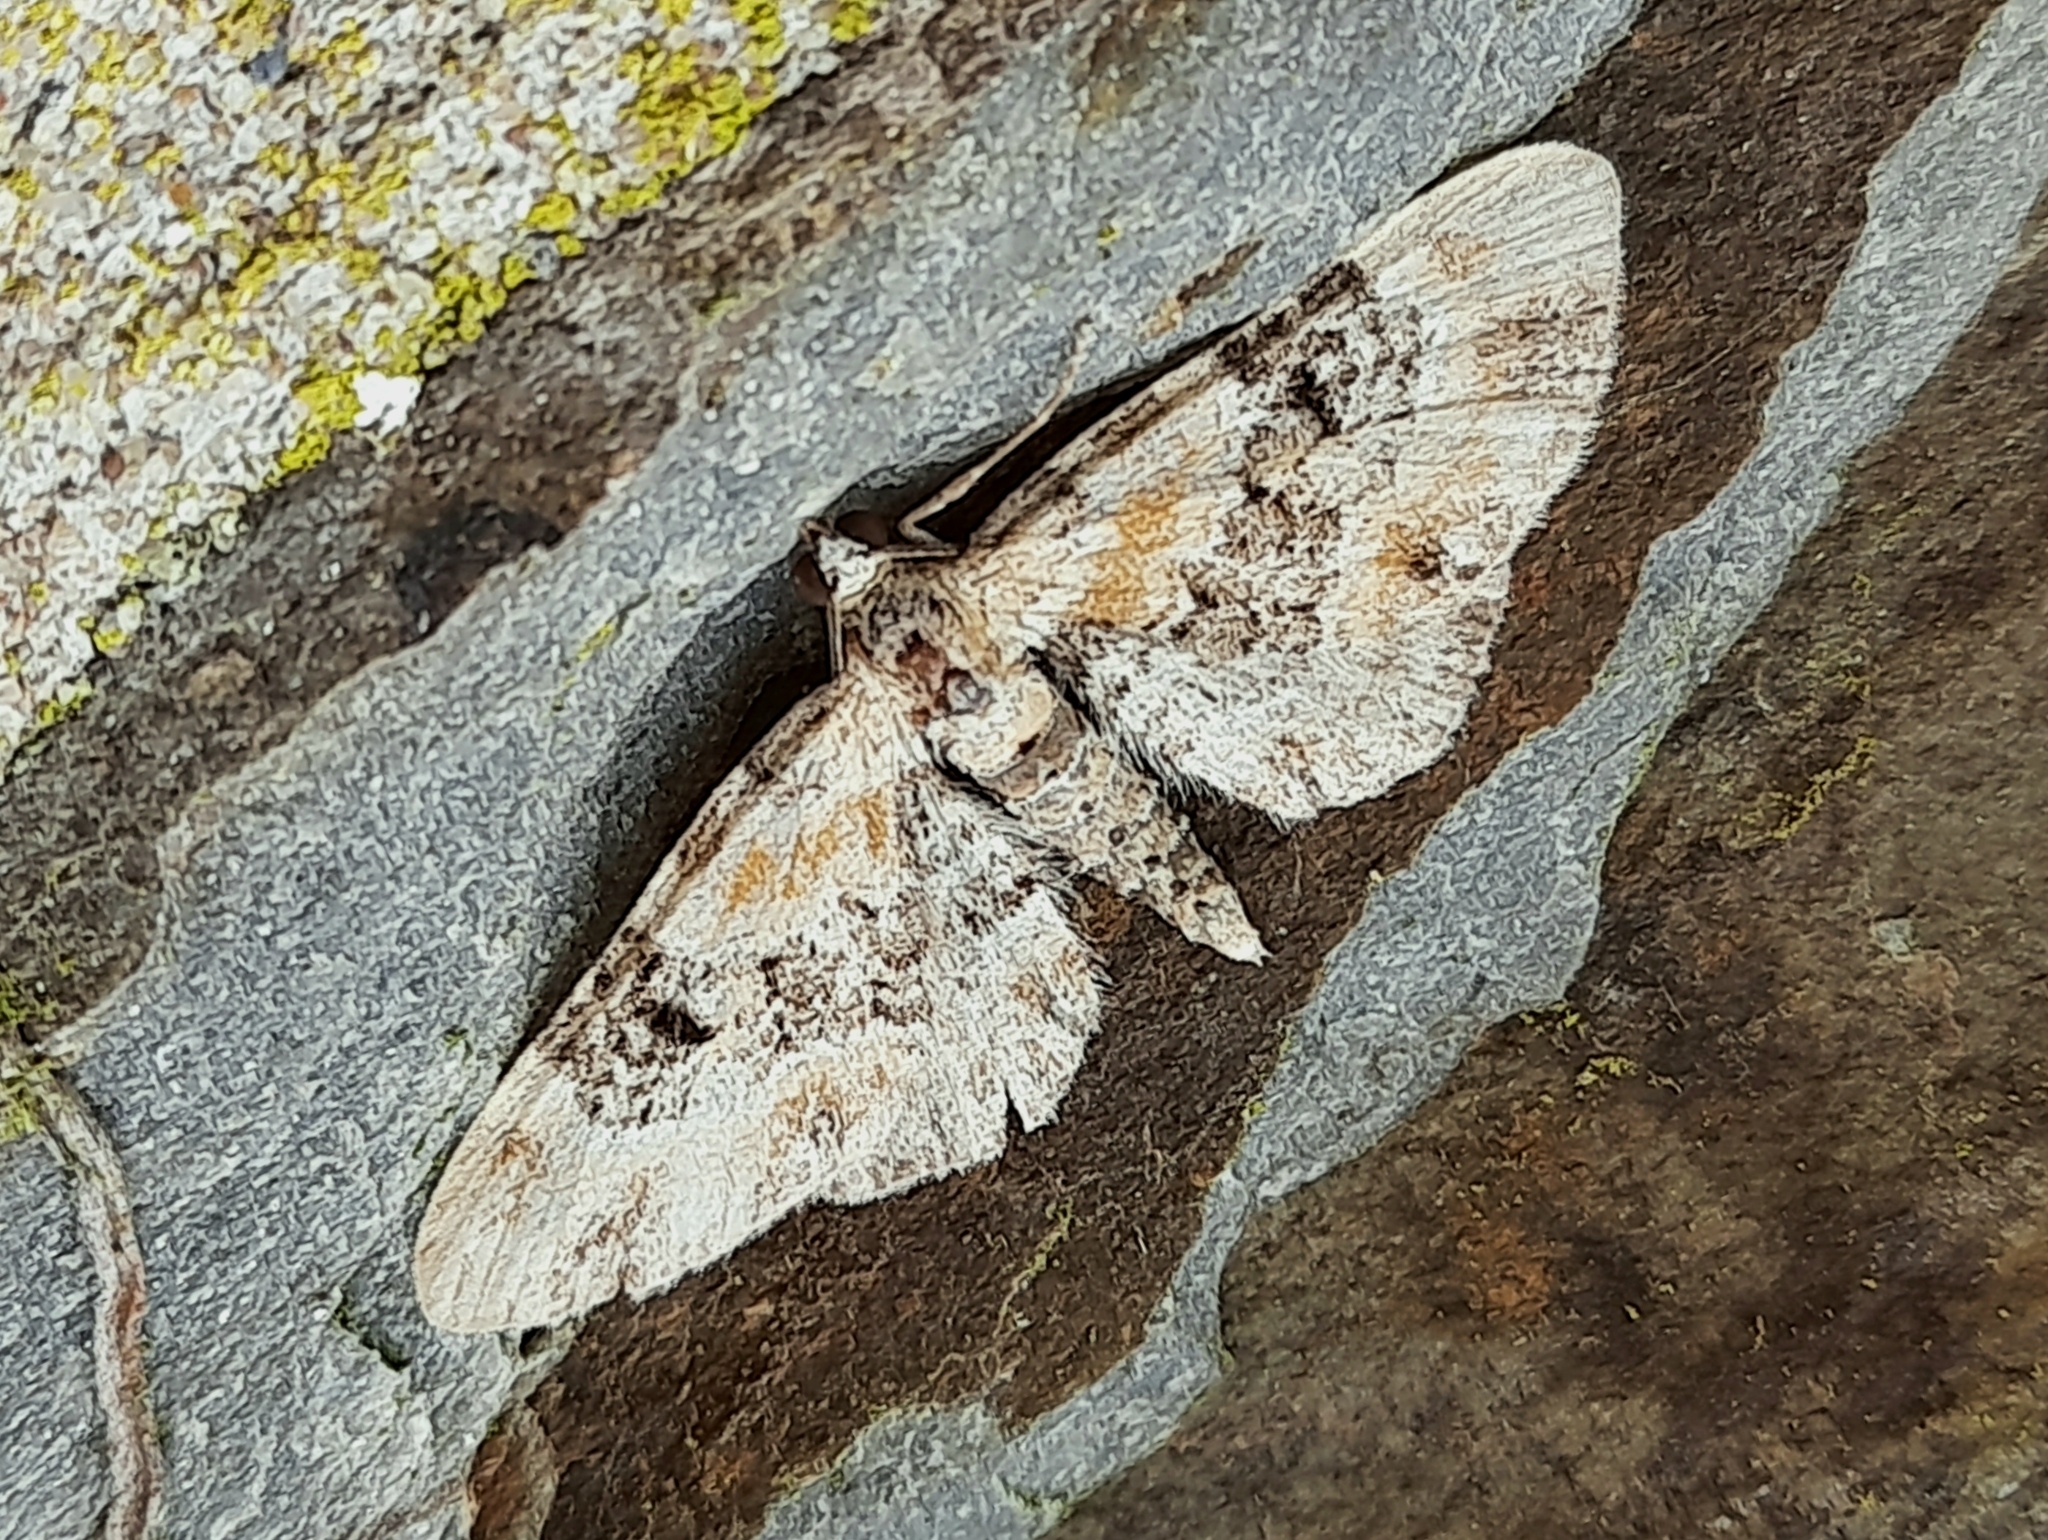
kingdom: Animalia
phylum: Arthropoda
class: Insecta
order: Lepidoptera
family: Geometridae
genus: Eupithecia
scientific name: Eupithecia pulchellata
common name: Foxglove pug
